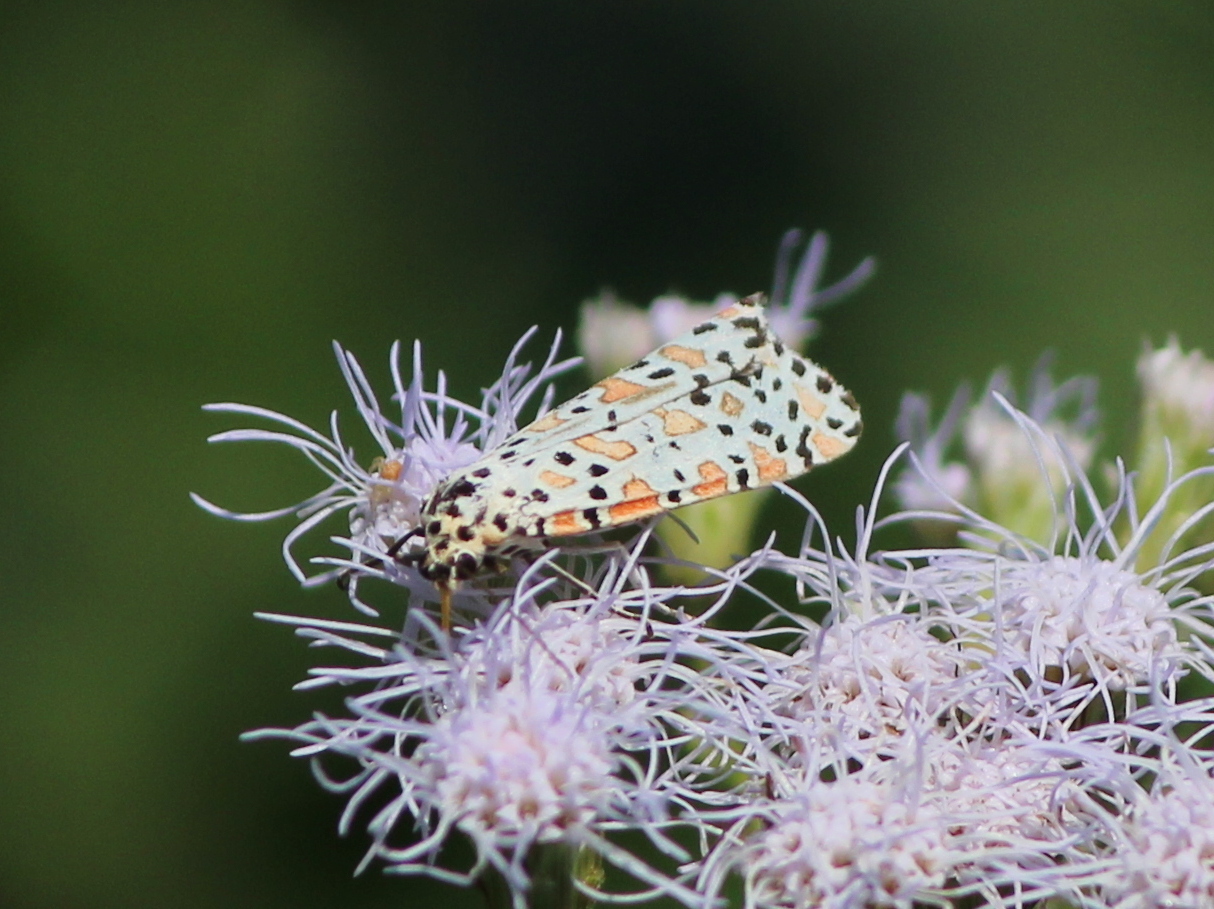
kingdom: Animalia
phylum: Arthropoda
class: Insecta
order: Lepidoptera
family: Erebidae
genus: Utetheisa
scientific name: Utetheisa lotrix
